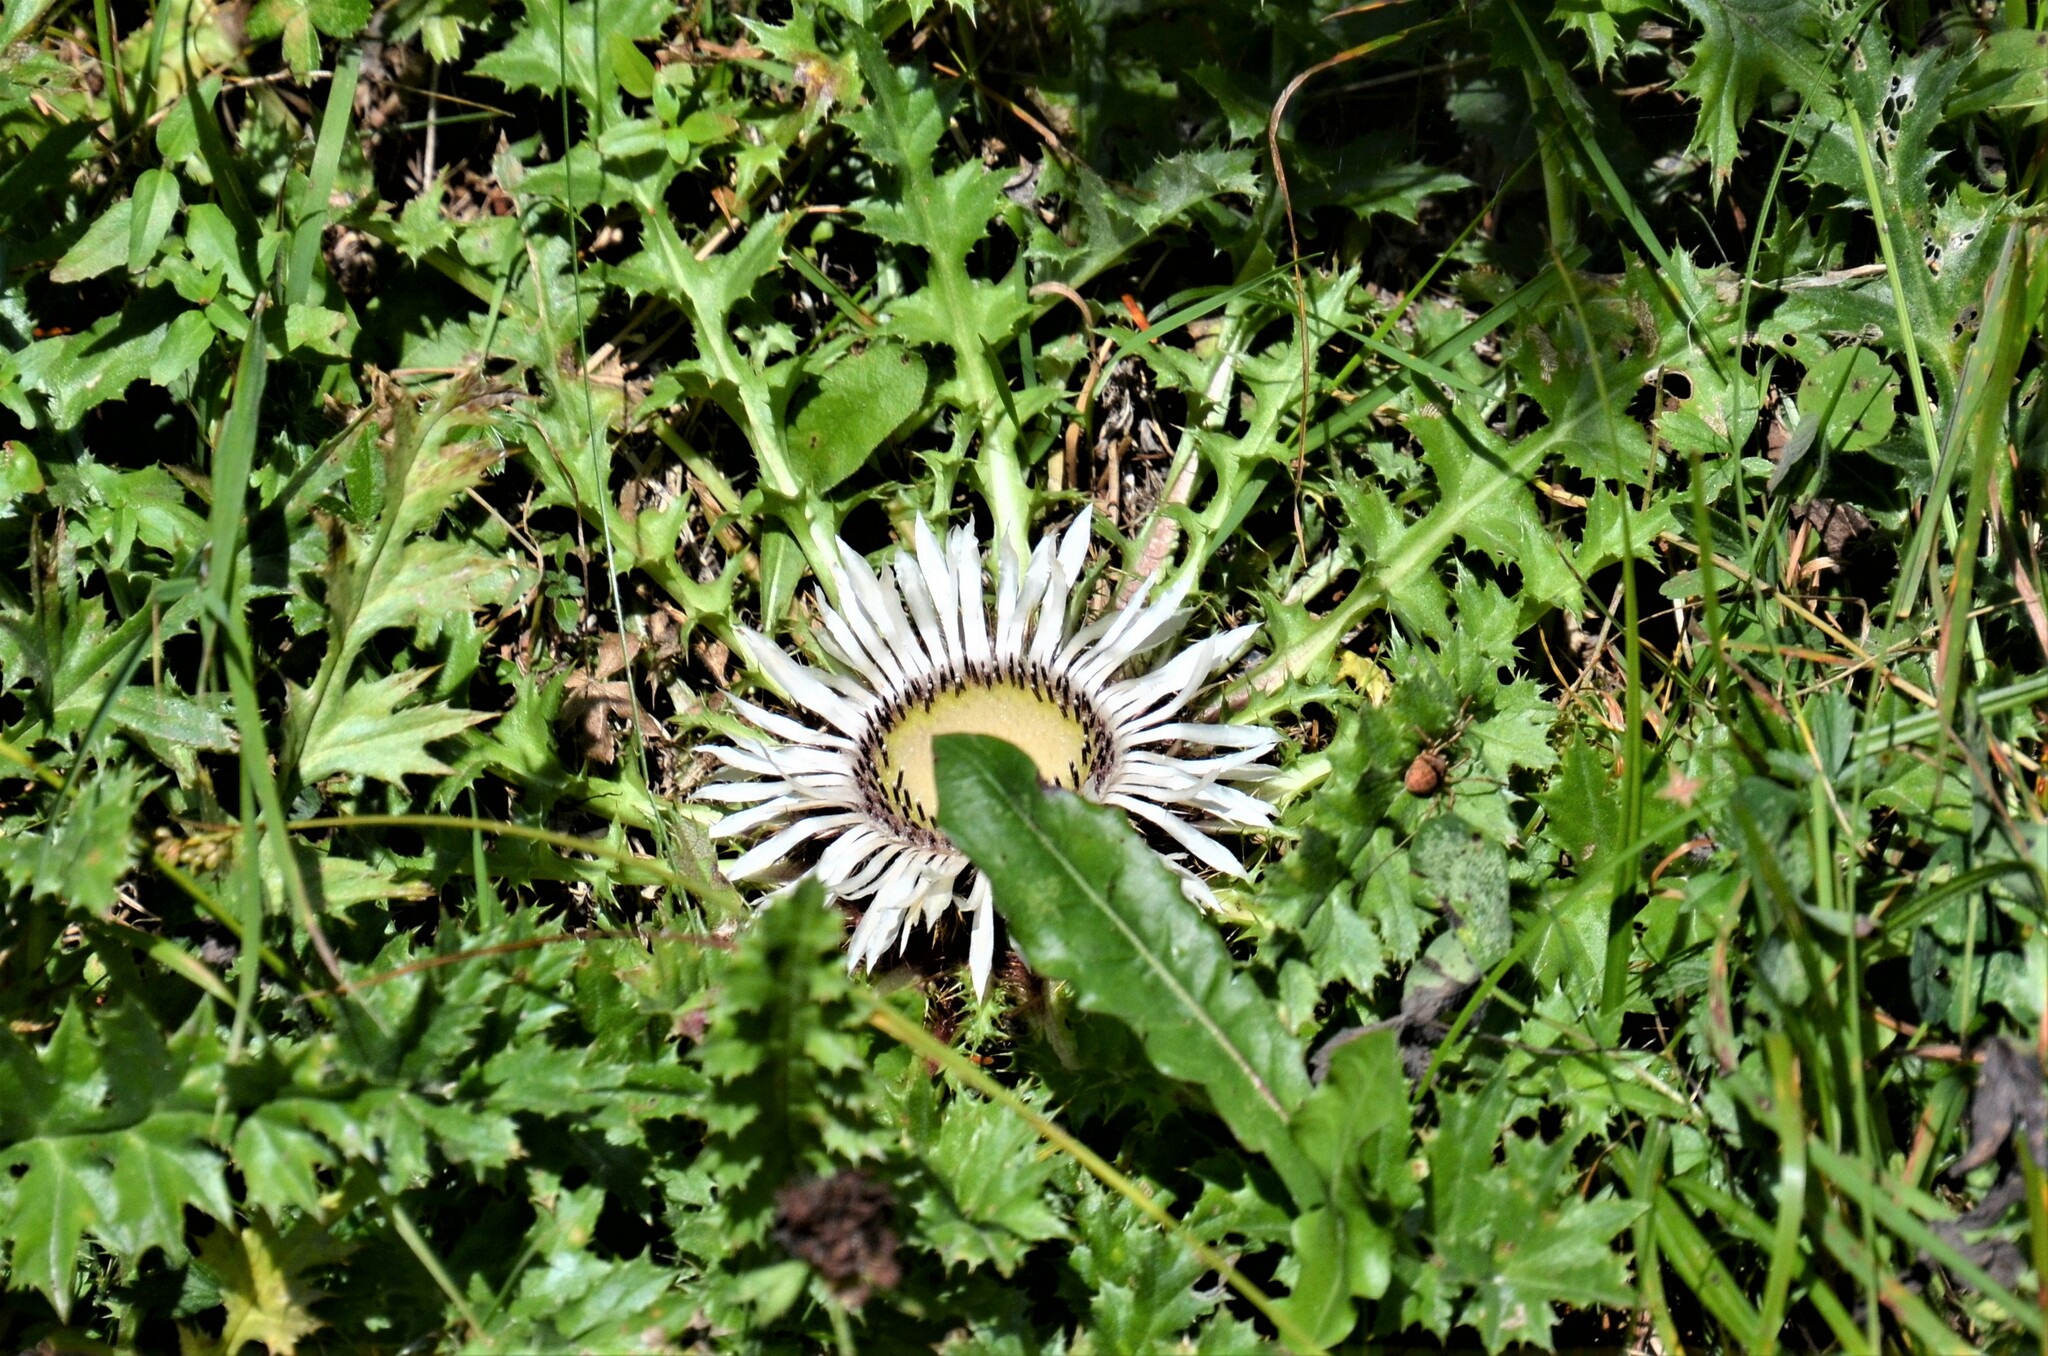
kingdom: Plantae
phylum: Tracheophyta
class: Magnoliopsida
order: Asterales
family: Asteraceae
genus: Carlina
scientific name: Carlina acaulis
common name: Stemless carline thistle
